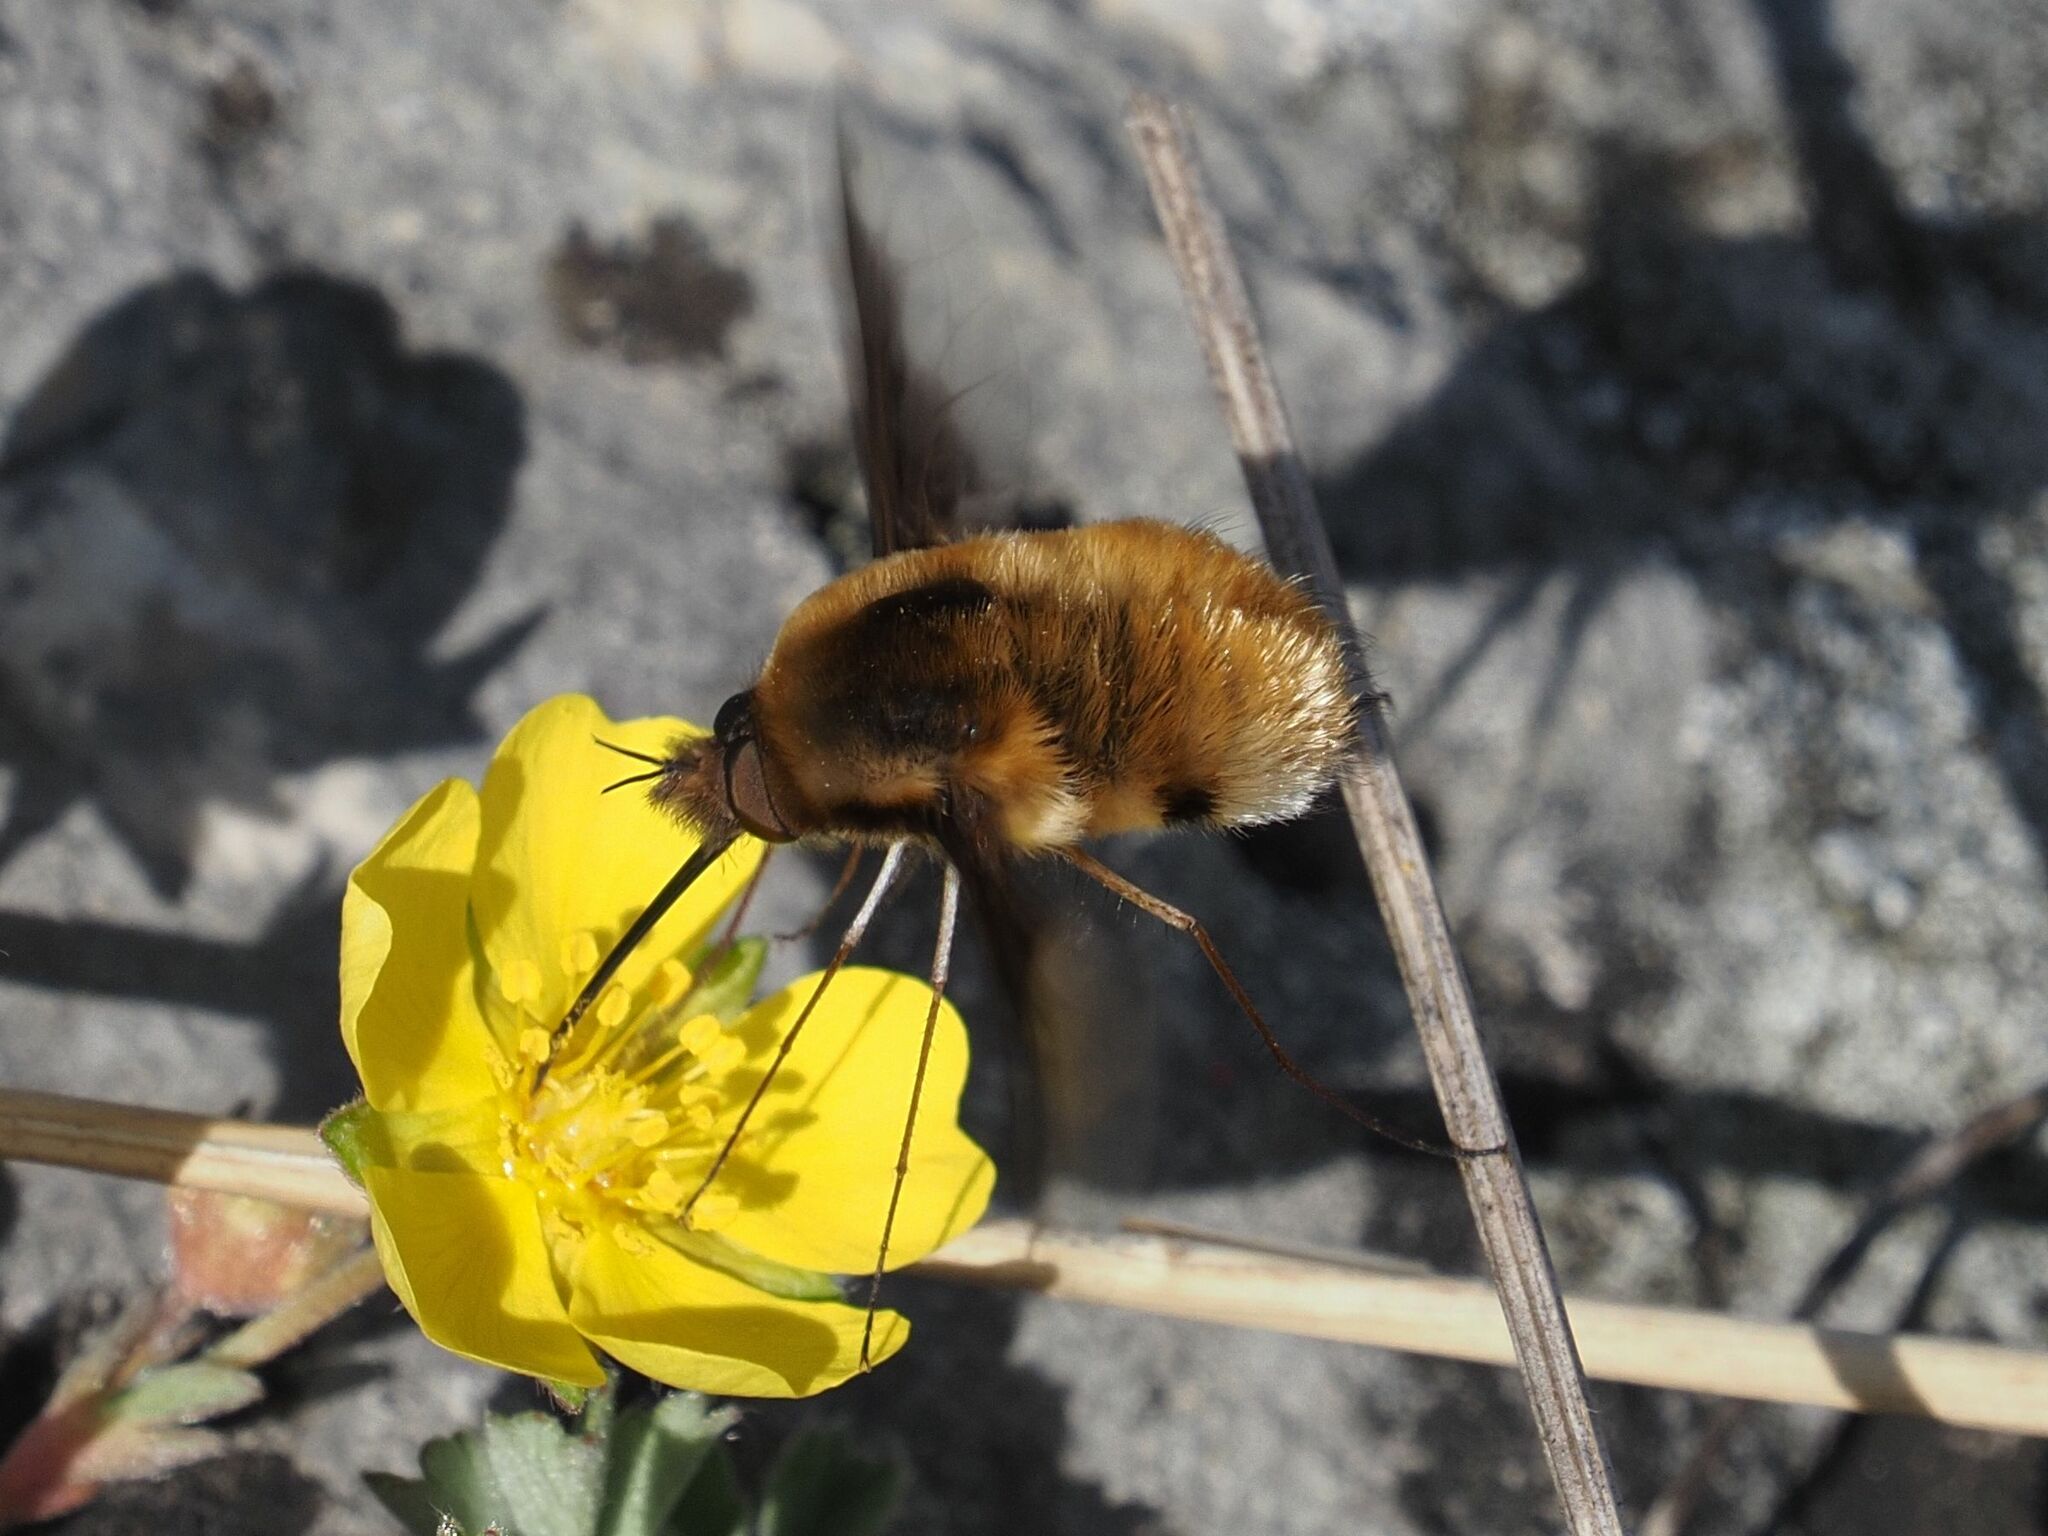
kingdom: Animalia
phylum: Arthropoda
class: Insecta
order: Diptera
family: Bombyliidae
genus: Bombylius
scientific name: Bombylius major
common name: Bee fly
